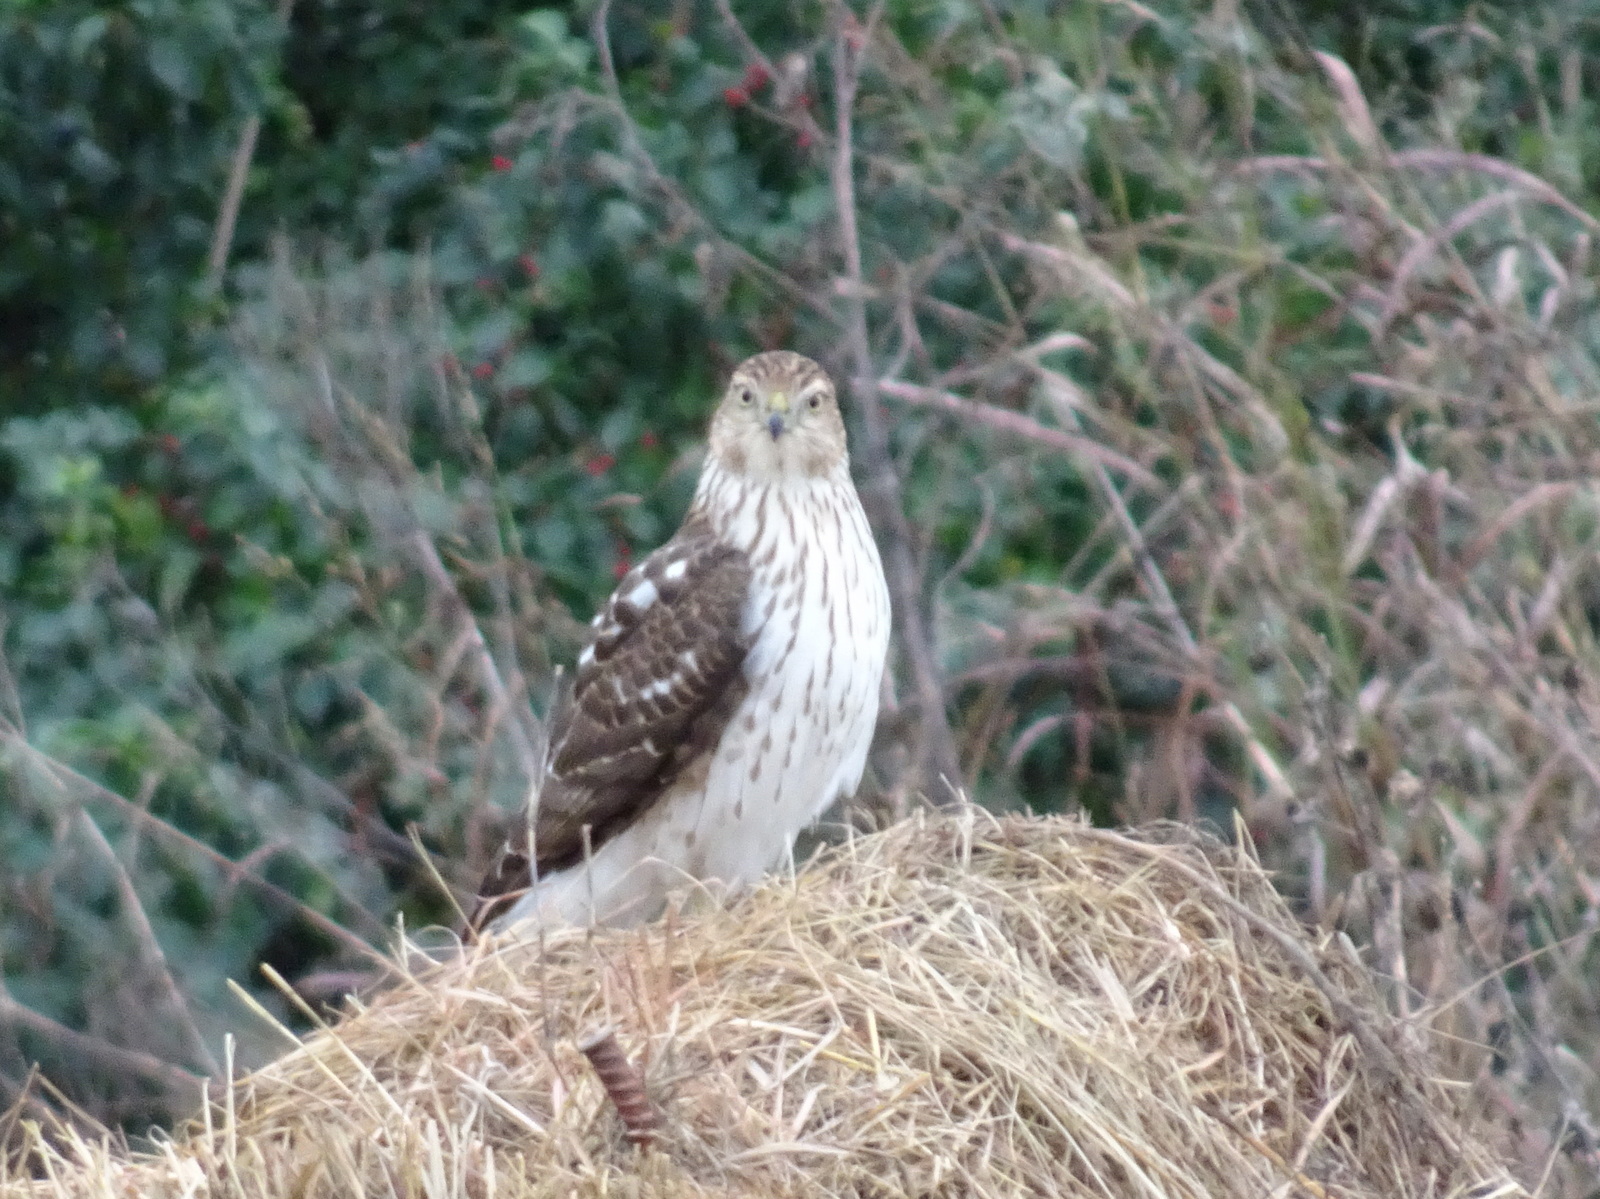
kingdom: Animalia
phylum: Chordata
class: Aves
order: Accipitriformes
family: Accipitridae
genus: Accipiter
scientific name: Accipiter cooperii
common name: Cooper's hawk
